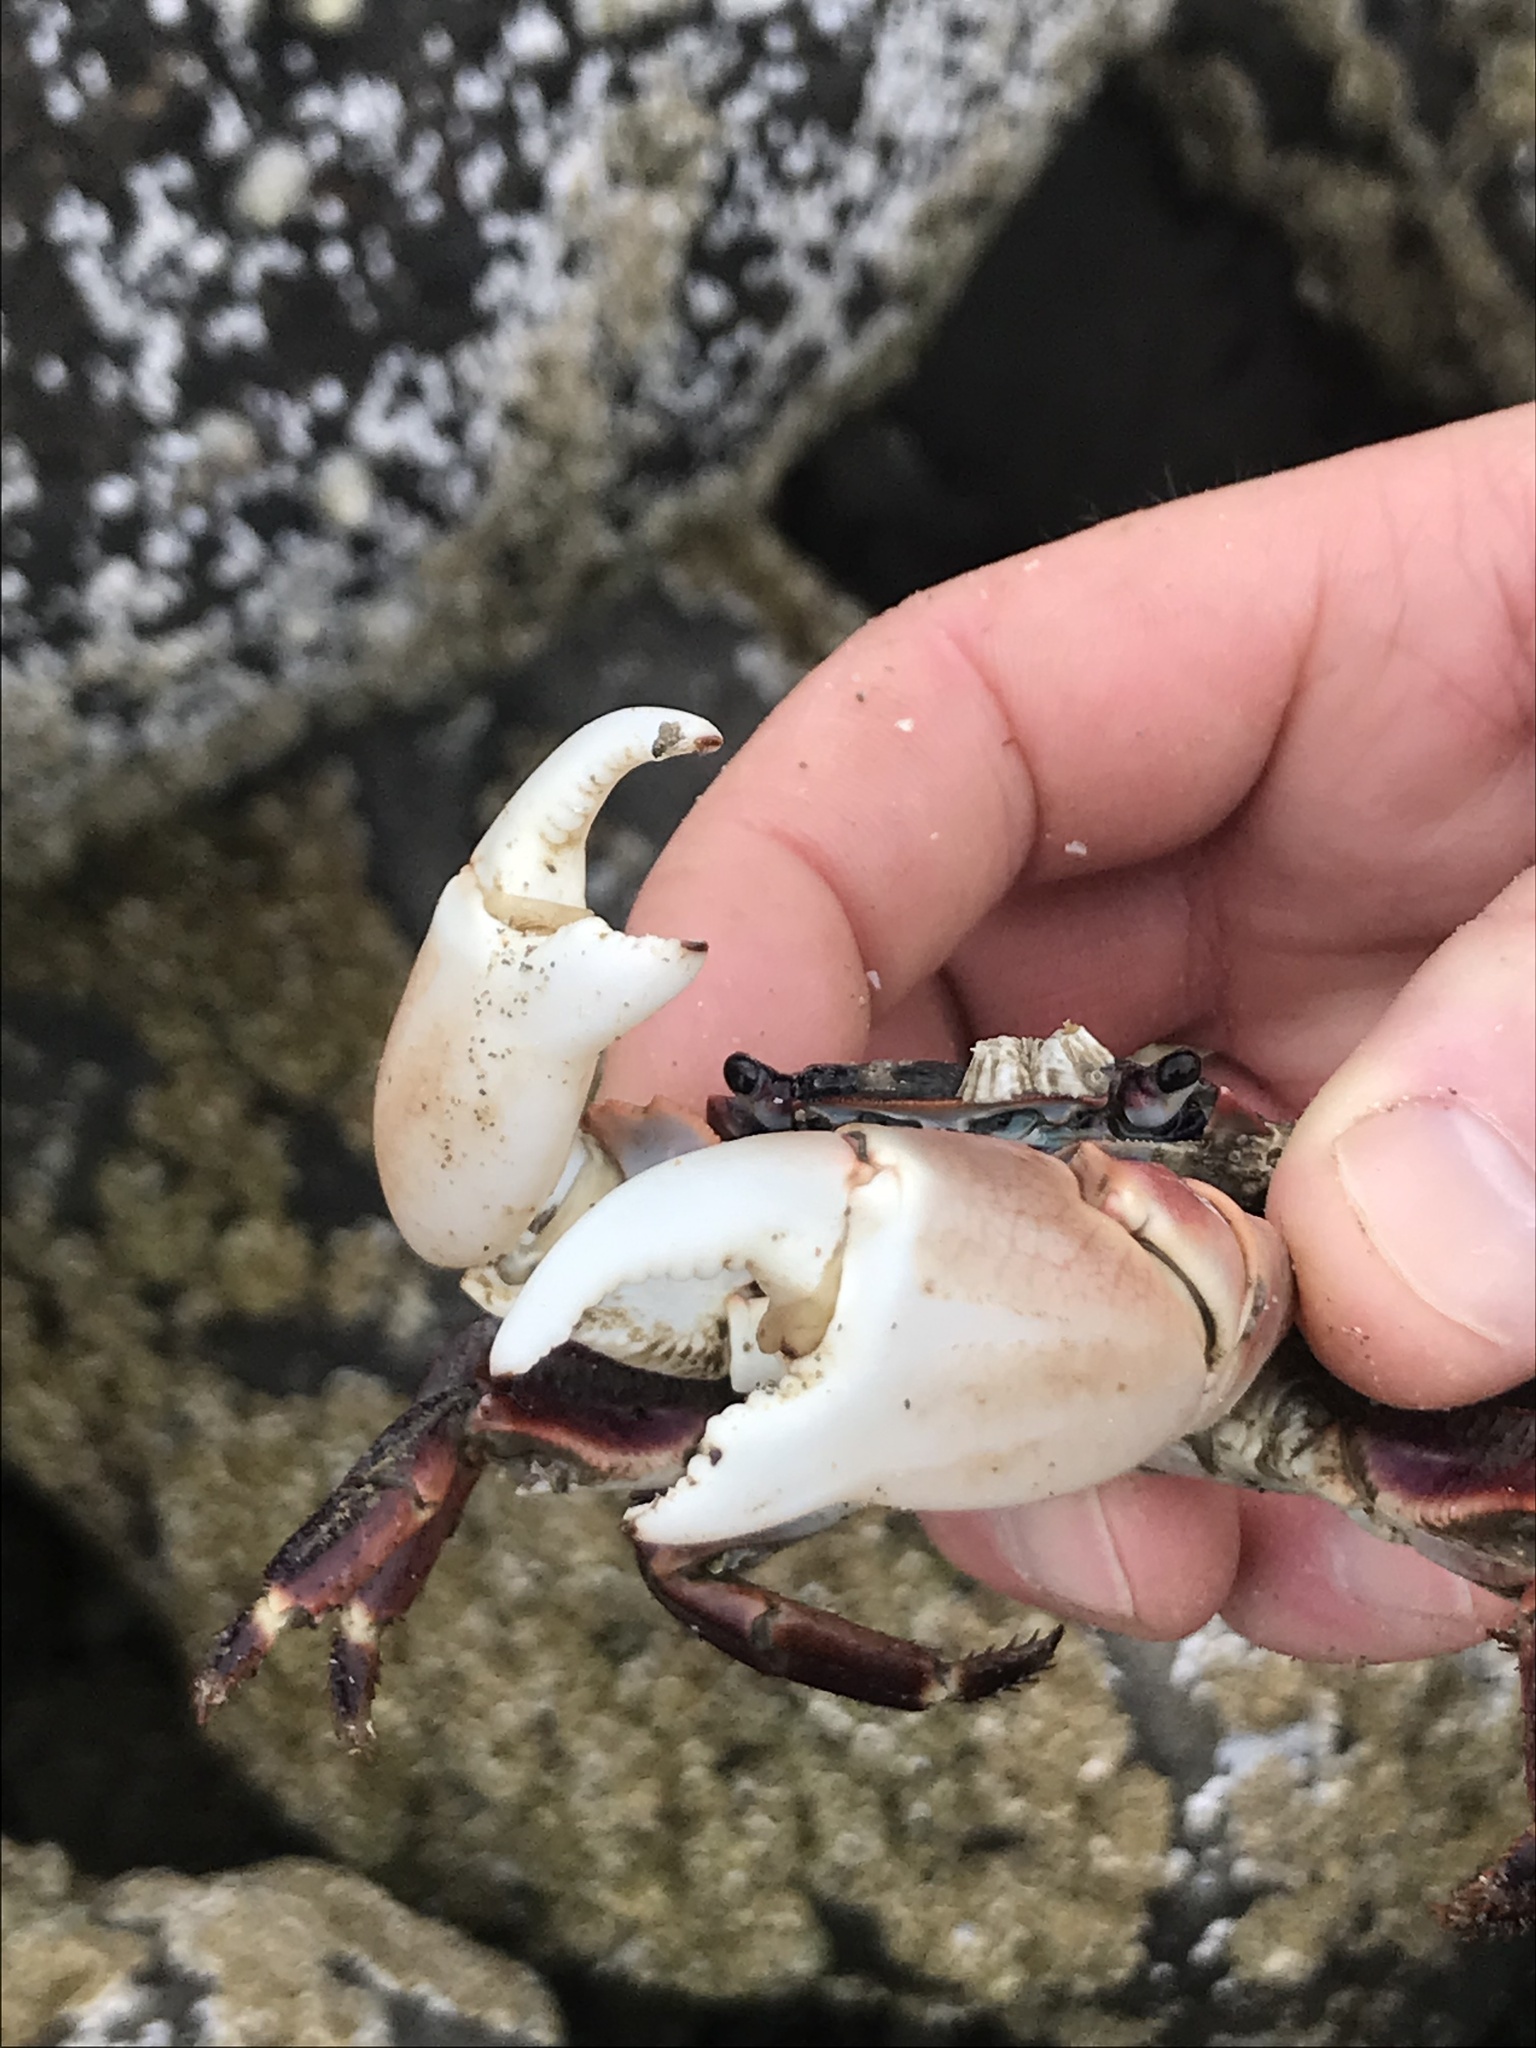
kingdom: Animalia
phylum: Arthropoda
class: Malacostraca
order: Decapoda
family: Grapsidae
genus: Pachygrapsus
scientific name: Pachygrapsus crassipes
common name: Striped shore crab
